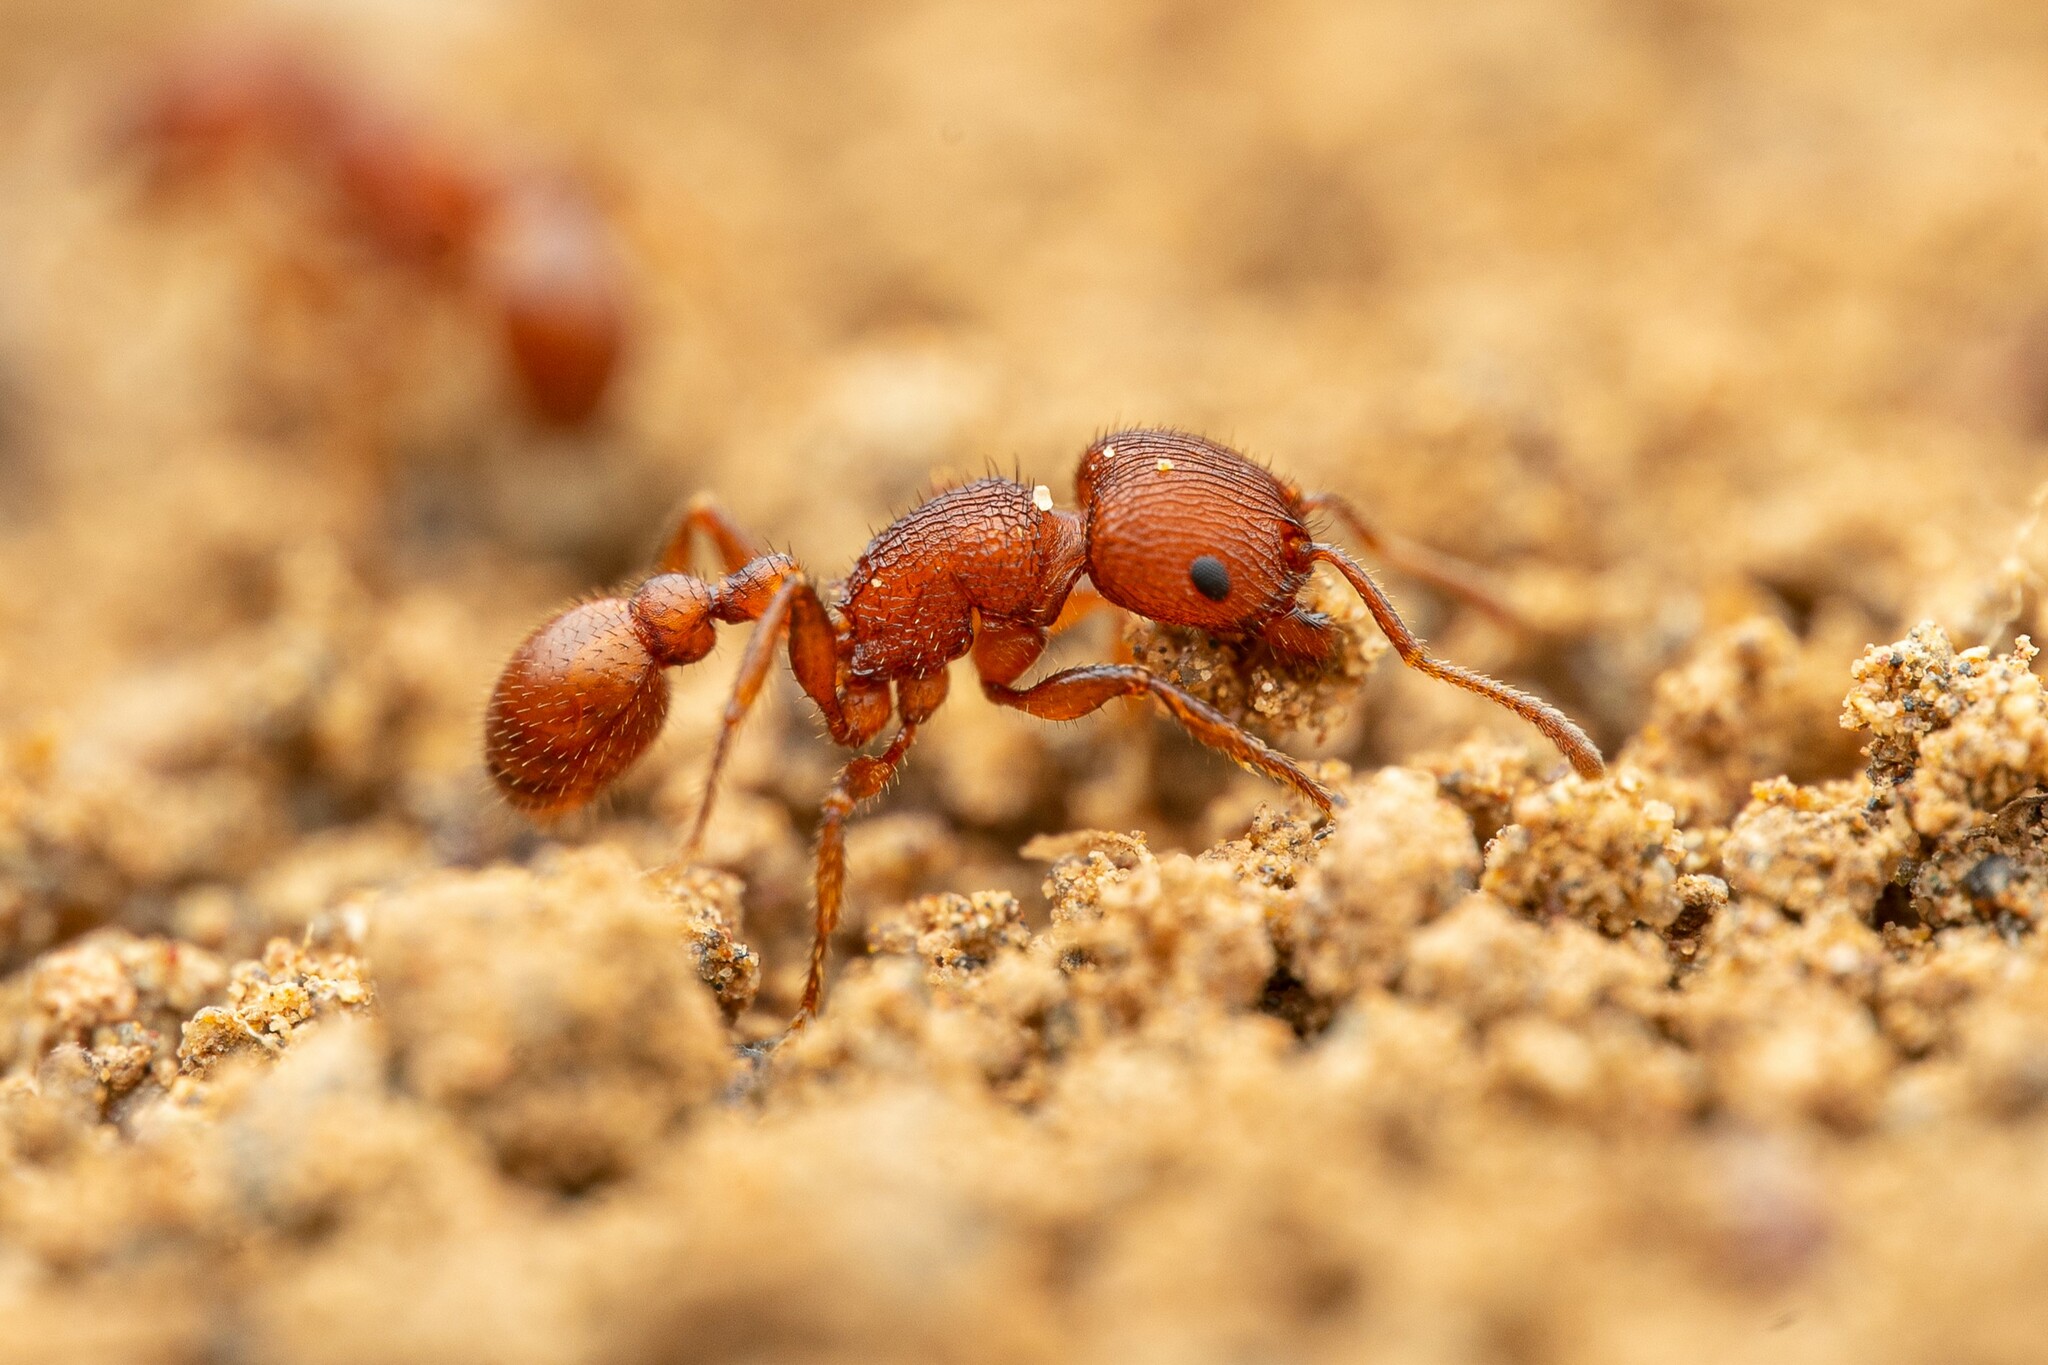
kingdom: Animalia
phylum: Arthropoda
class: Insecta
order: Hymenoptera
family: Formicidae
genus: Pogonomyrmex
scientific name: Pogonomyrmex pima
